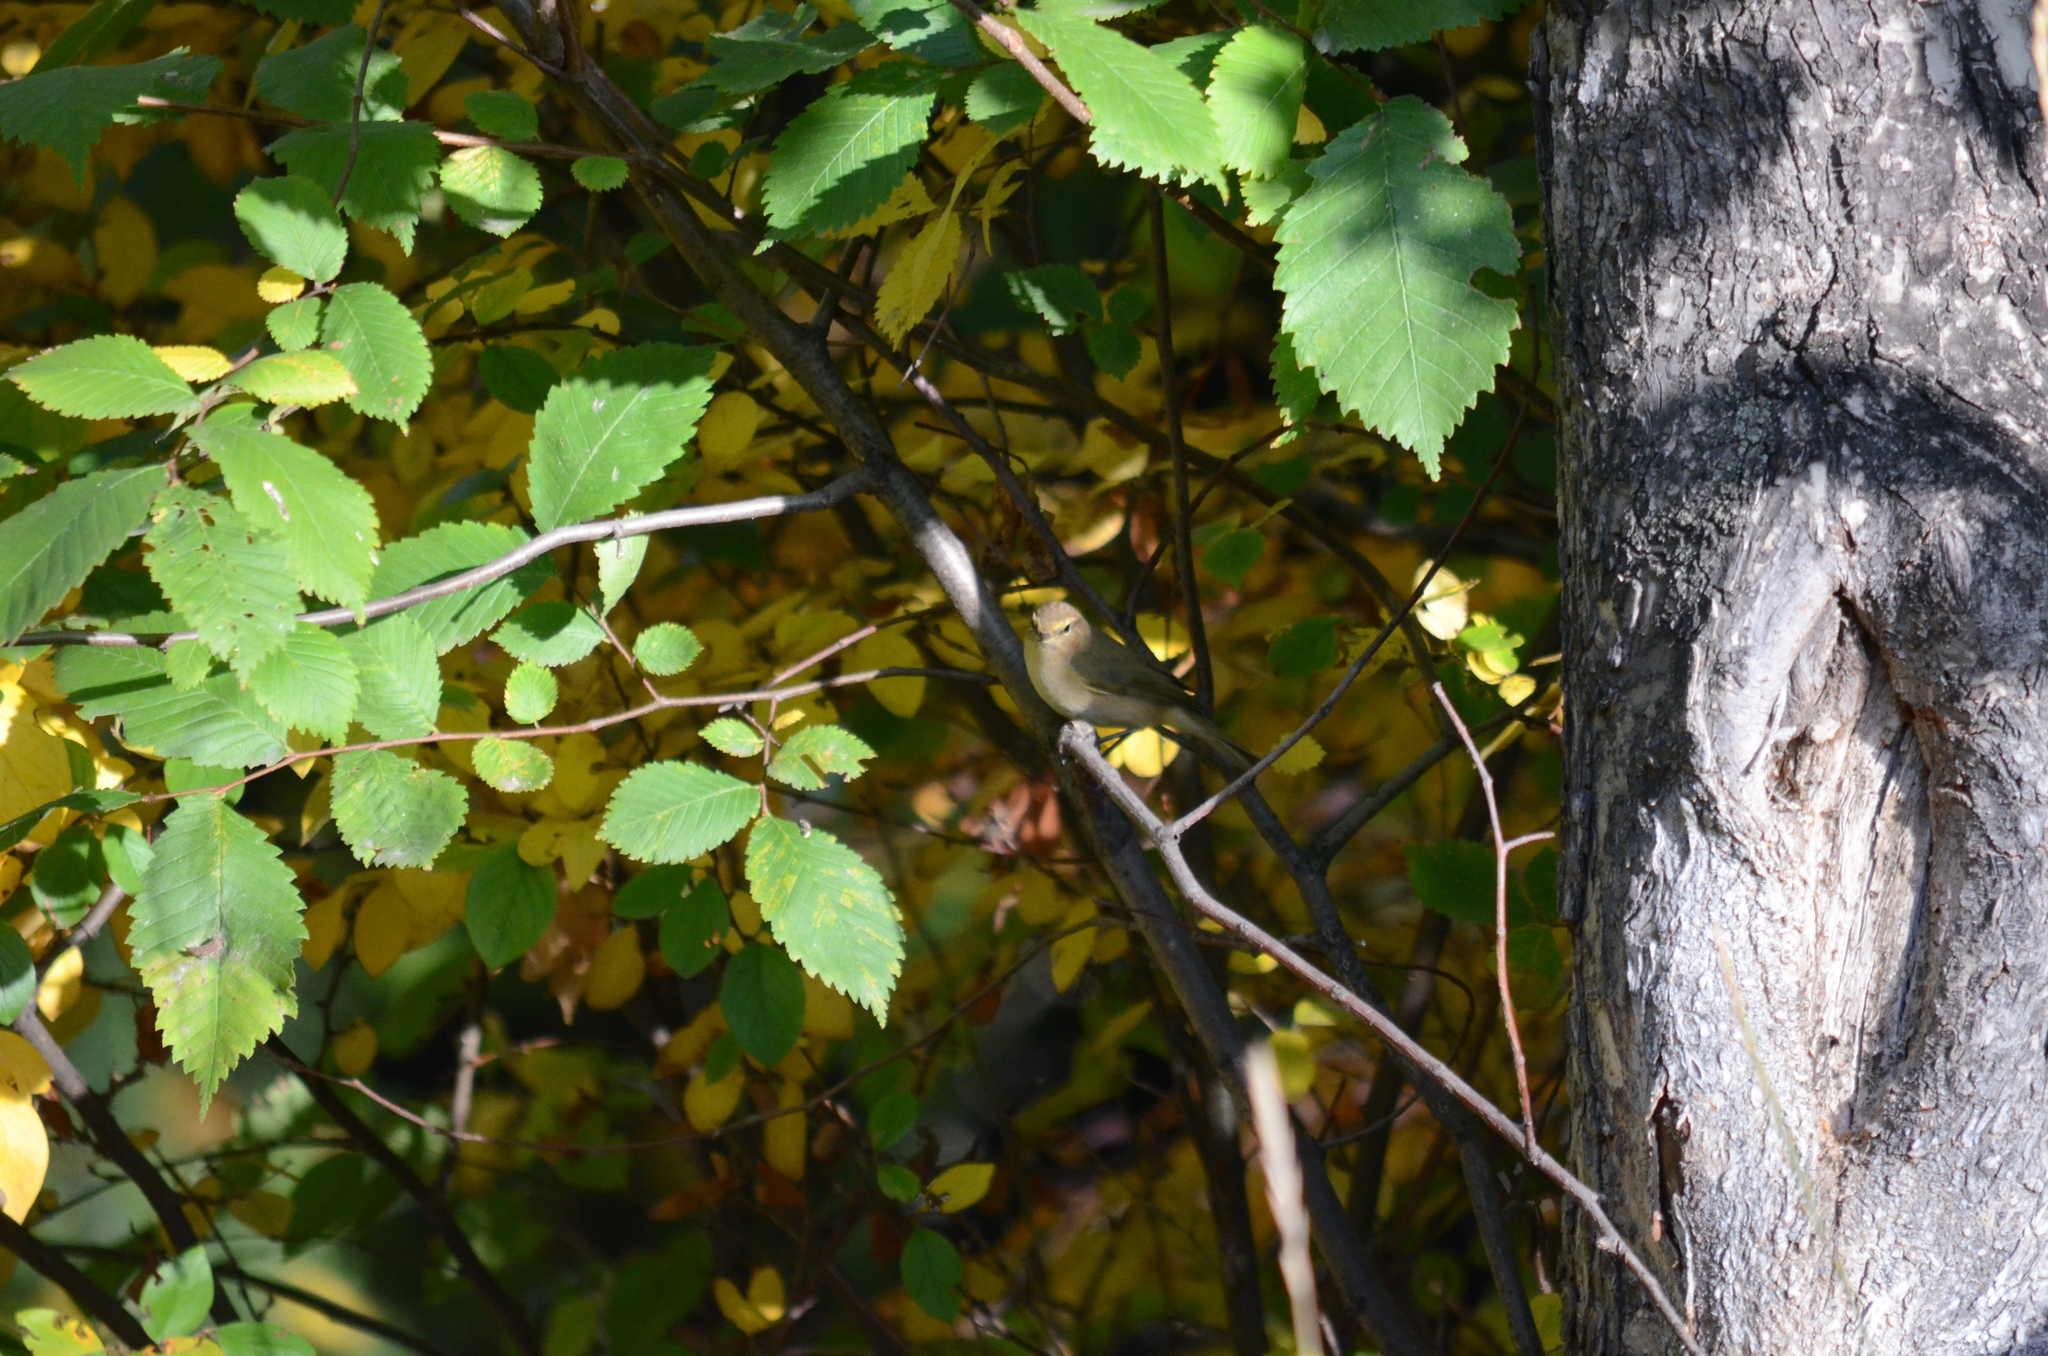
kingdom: Animalia
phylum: Chordata
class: Aves
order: Passeriformes
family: Phylloscopidae
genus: Phylloscopus
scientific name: Phylloscopus collybita
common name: Common chiffchaff
